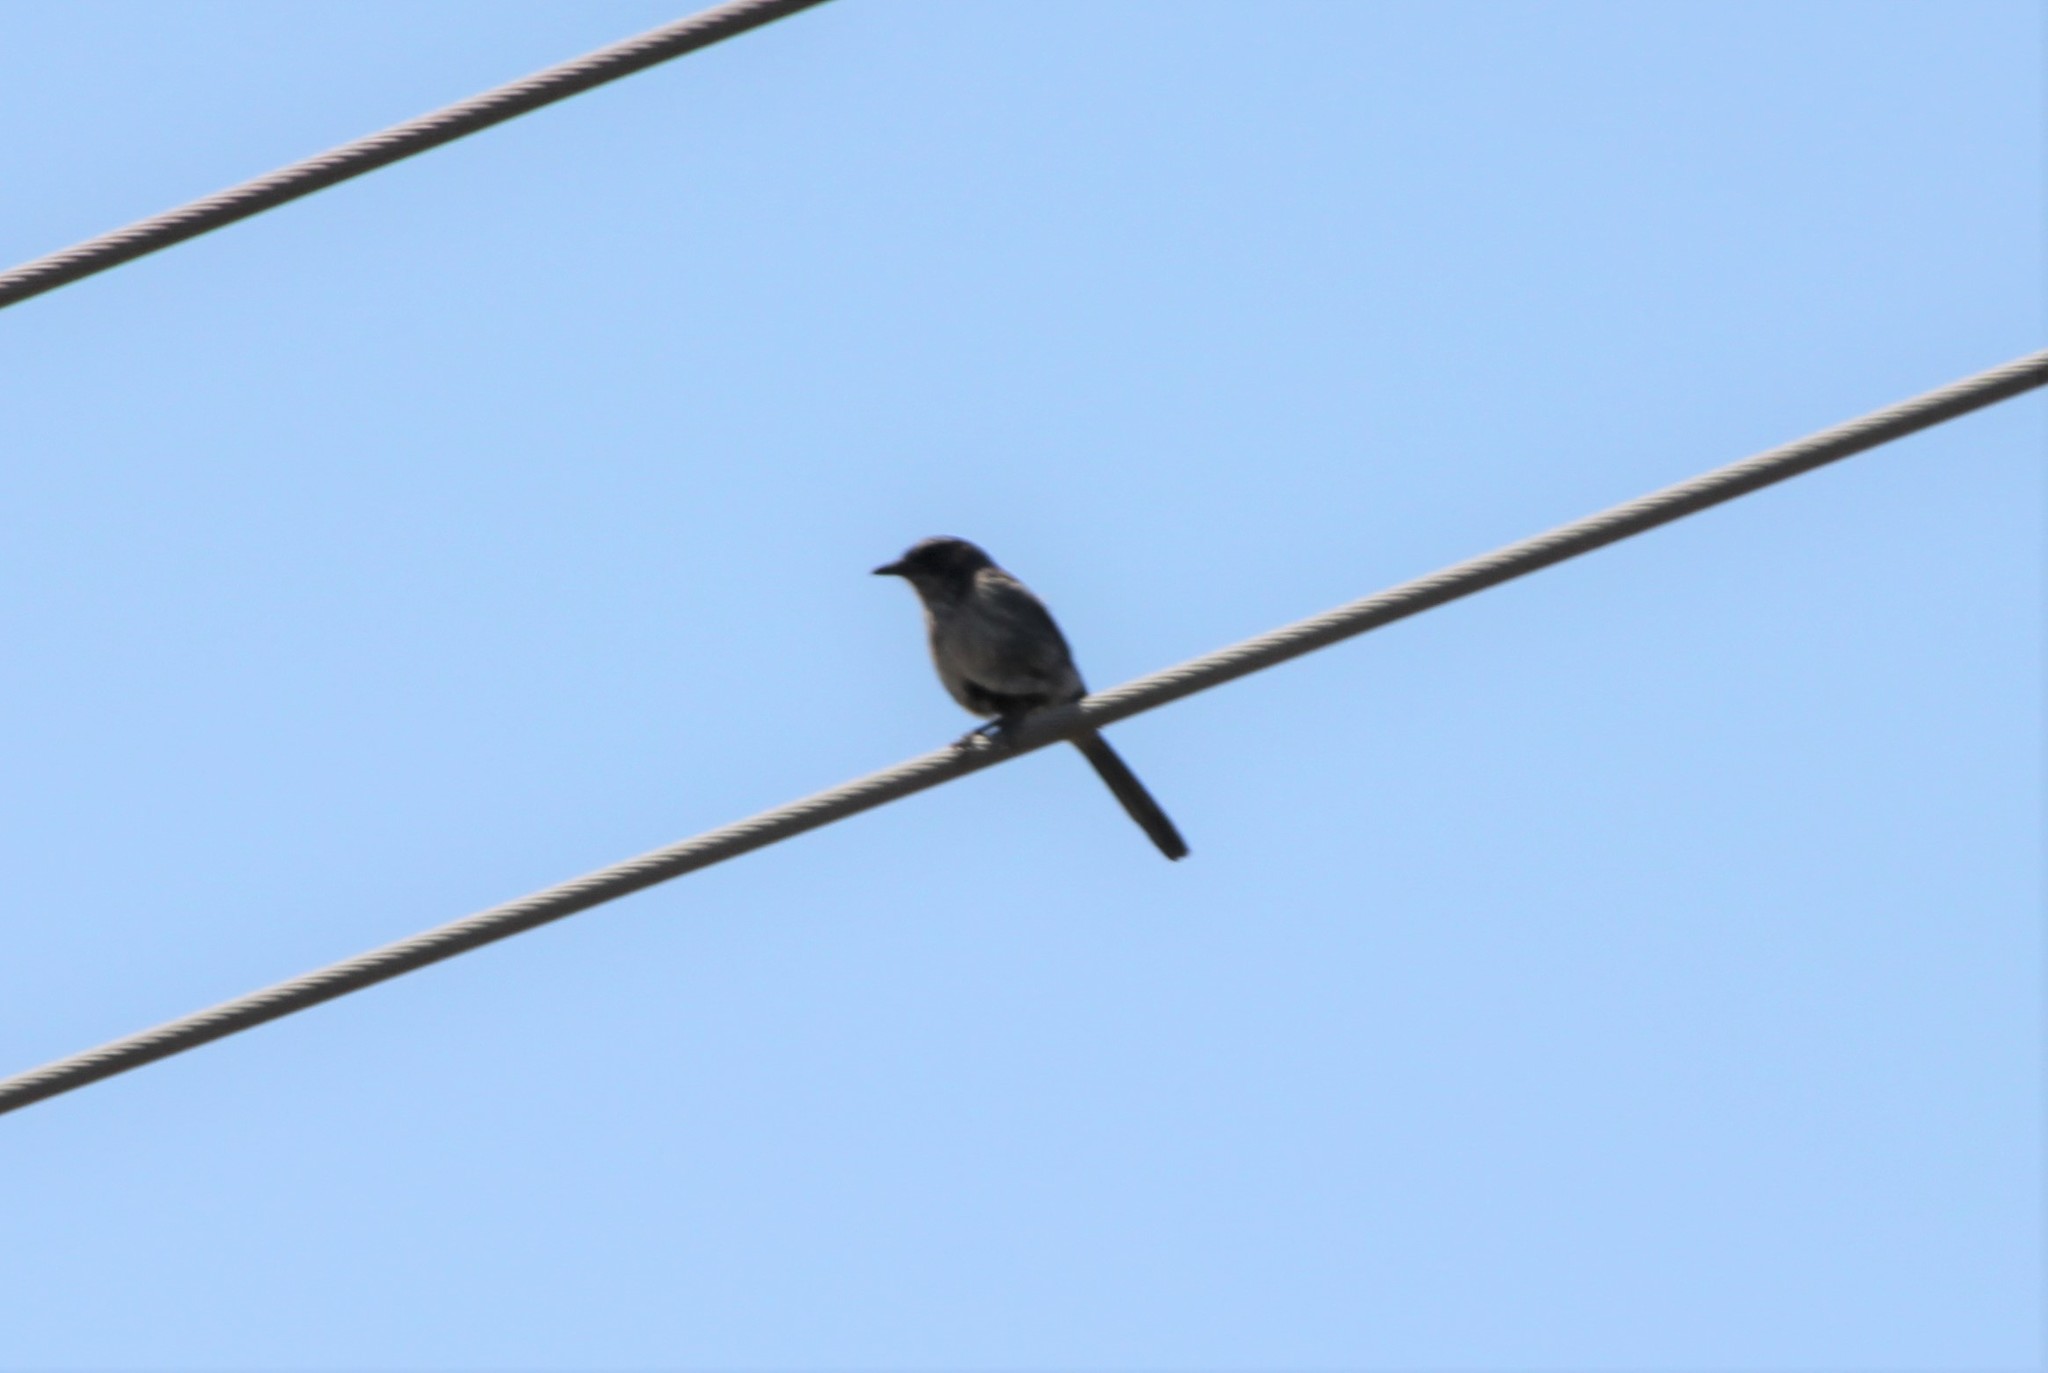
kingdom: Animalia
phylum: Chordata
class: Aves
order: Passeriformes
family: Corvidae
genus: Aphelocoma
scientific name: Aphelocoma californica
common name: California scrub-jay
